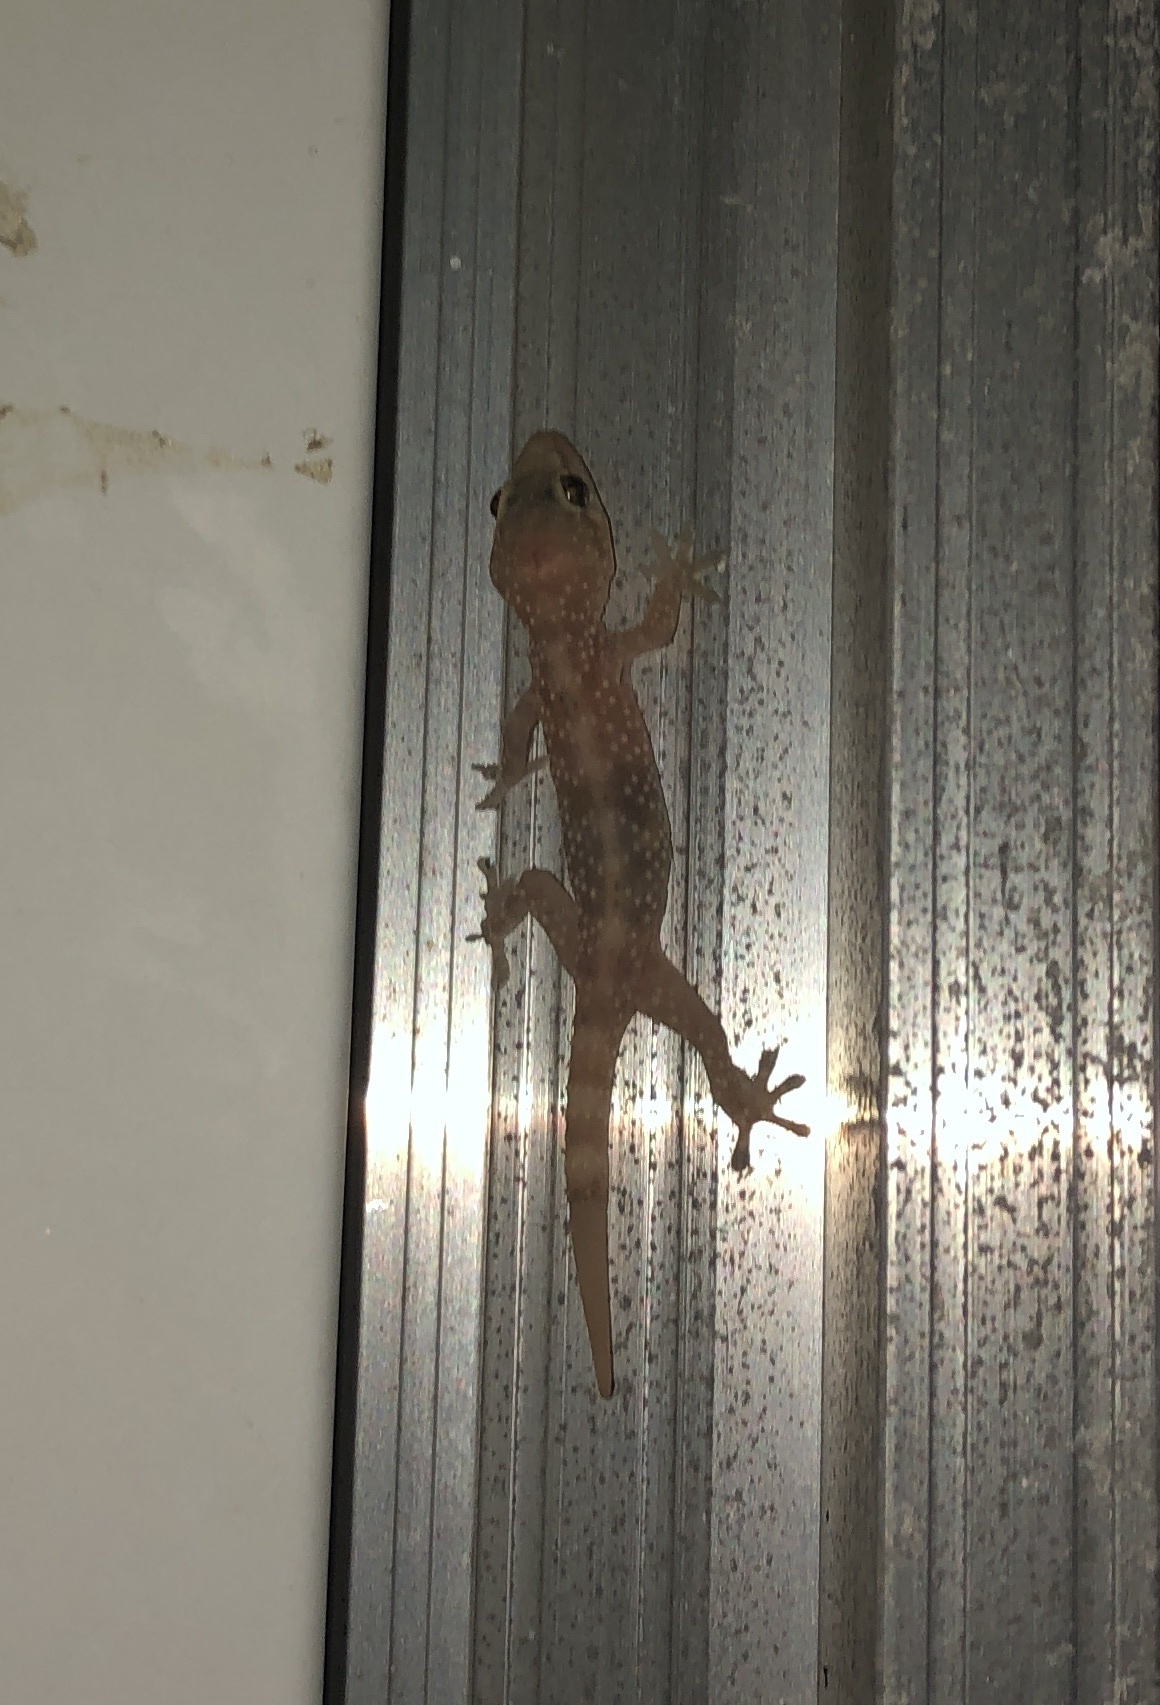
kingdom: Animalia
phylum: Chordata
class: Squamata
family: Gekkonidae
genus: Hemidactylus
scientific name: Hemidactylus turcicus
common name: Turkish gecko
